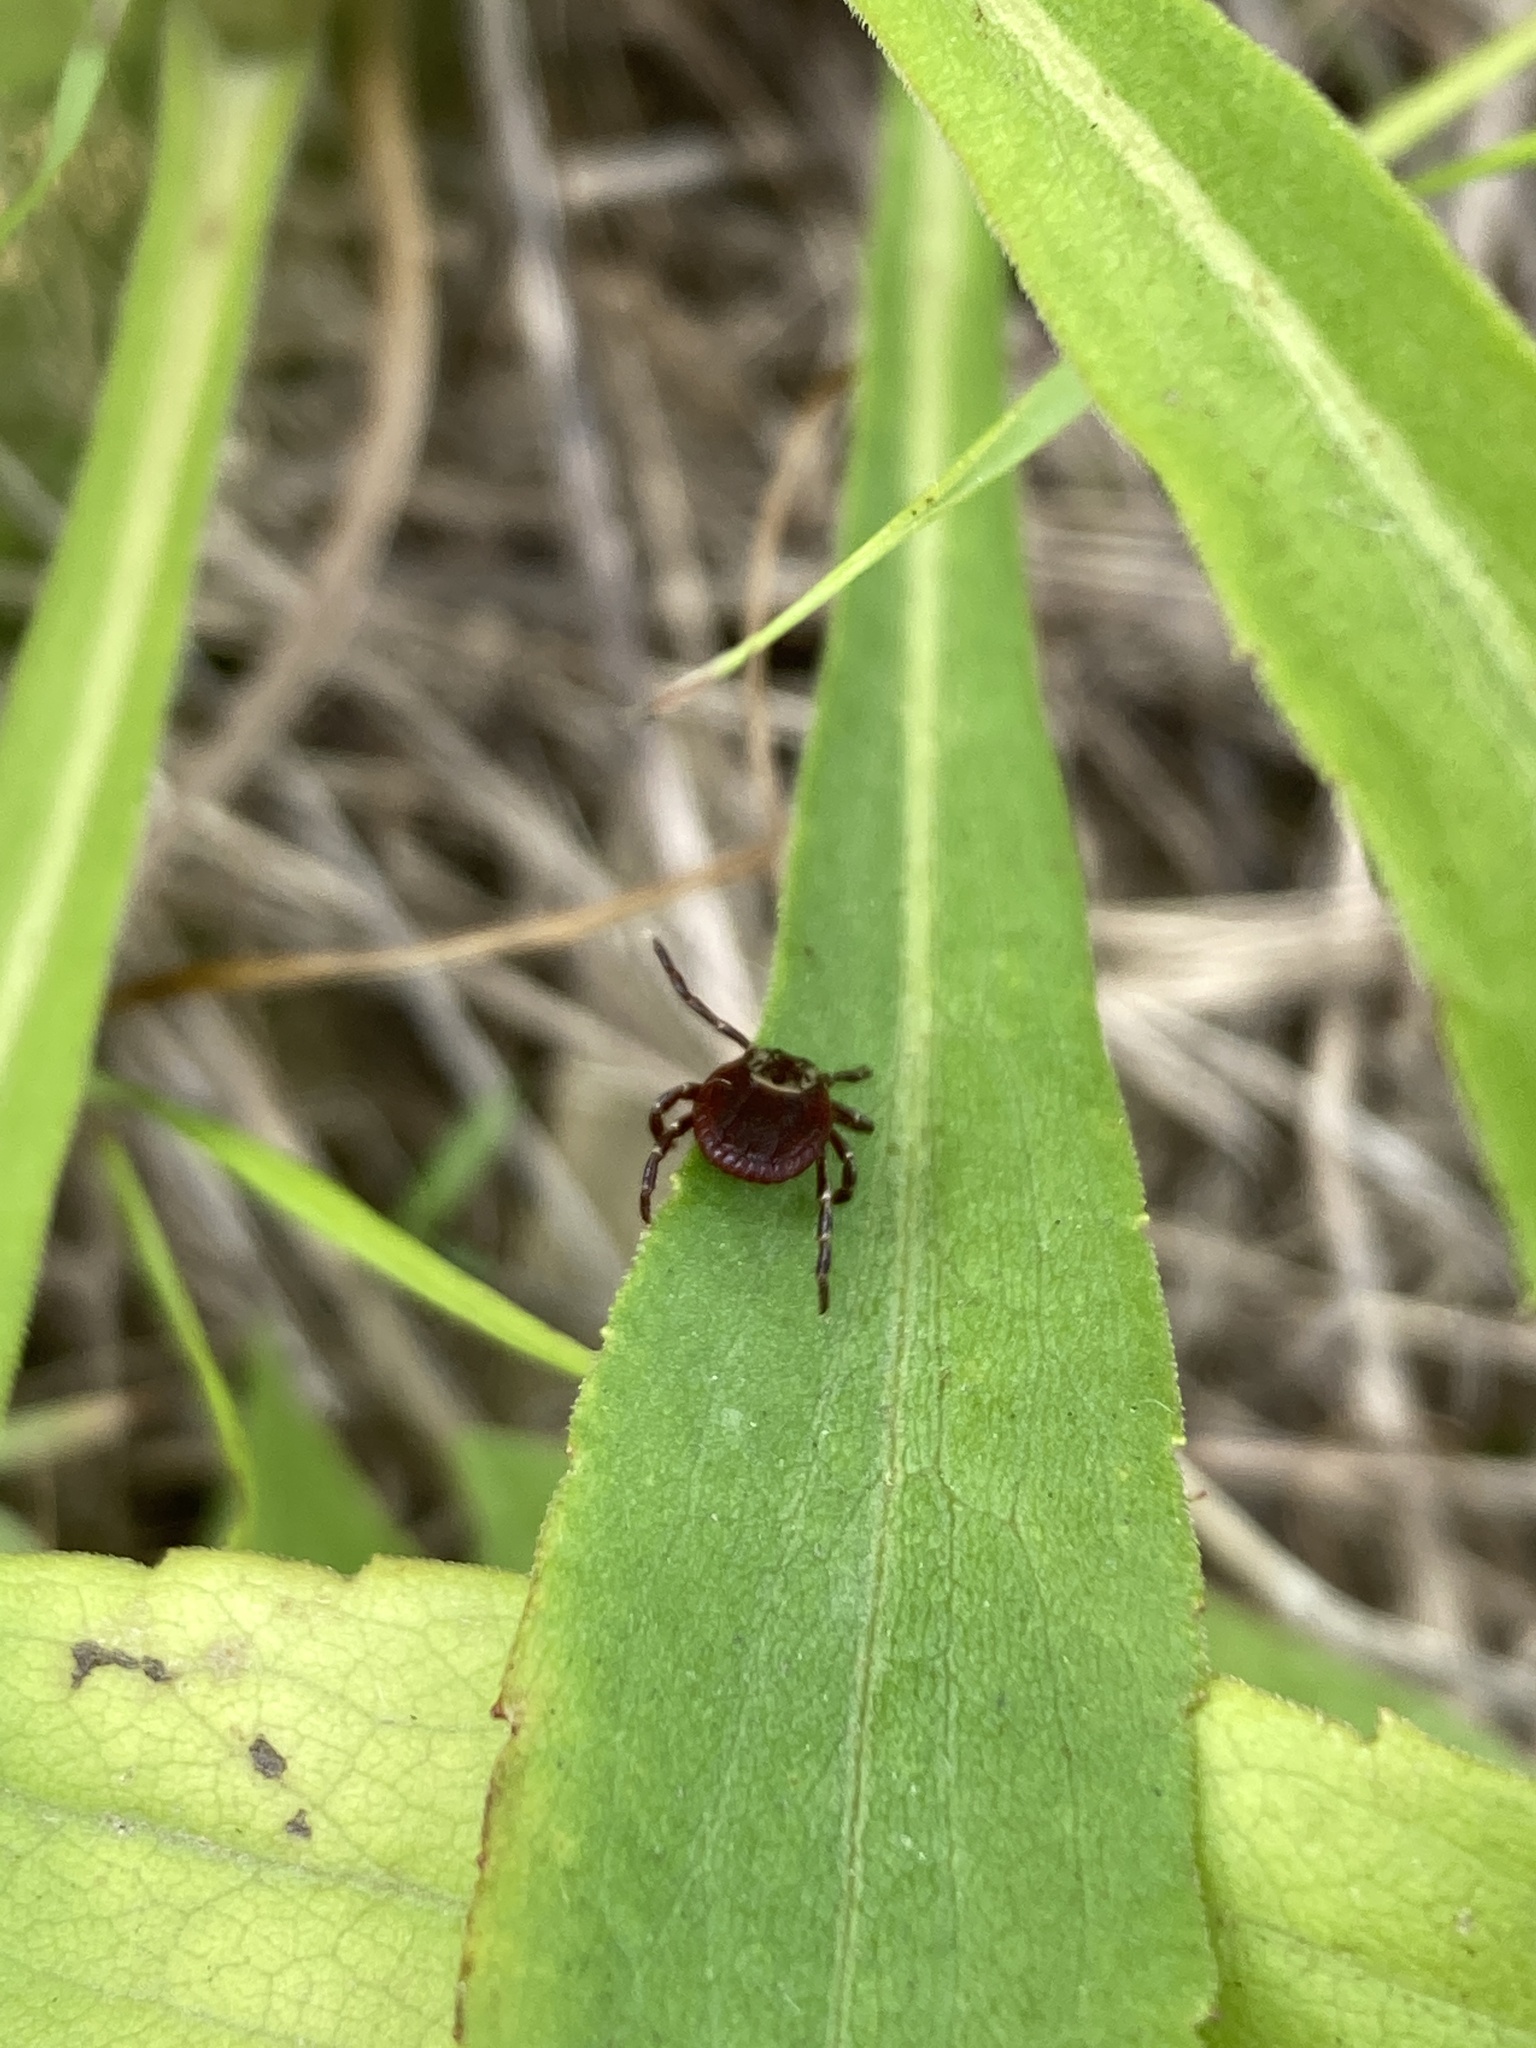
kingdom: Animalia
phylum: Arthropoda
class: Arachnida
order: Ixodida
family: Ixodidae
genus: Dermacentor
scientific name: Dermacentor variabilis
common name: American dog tick
